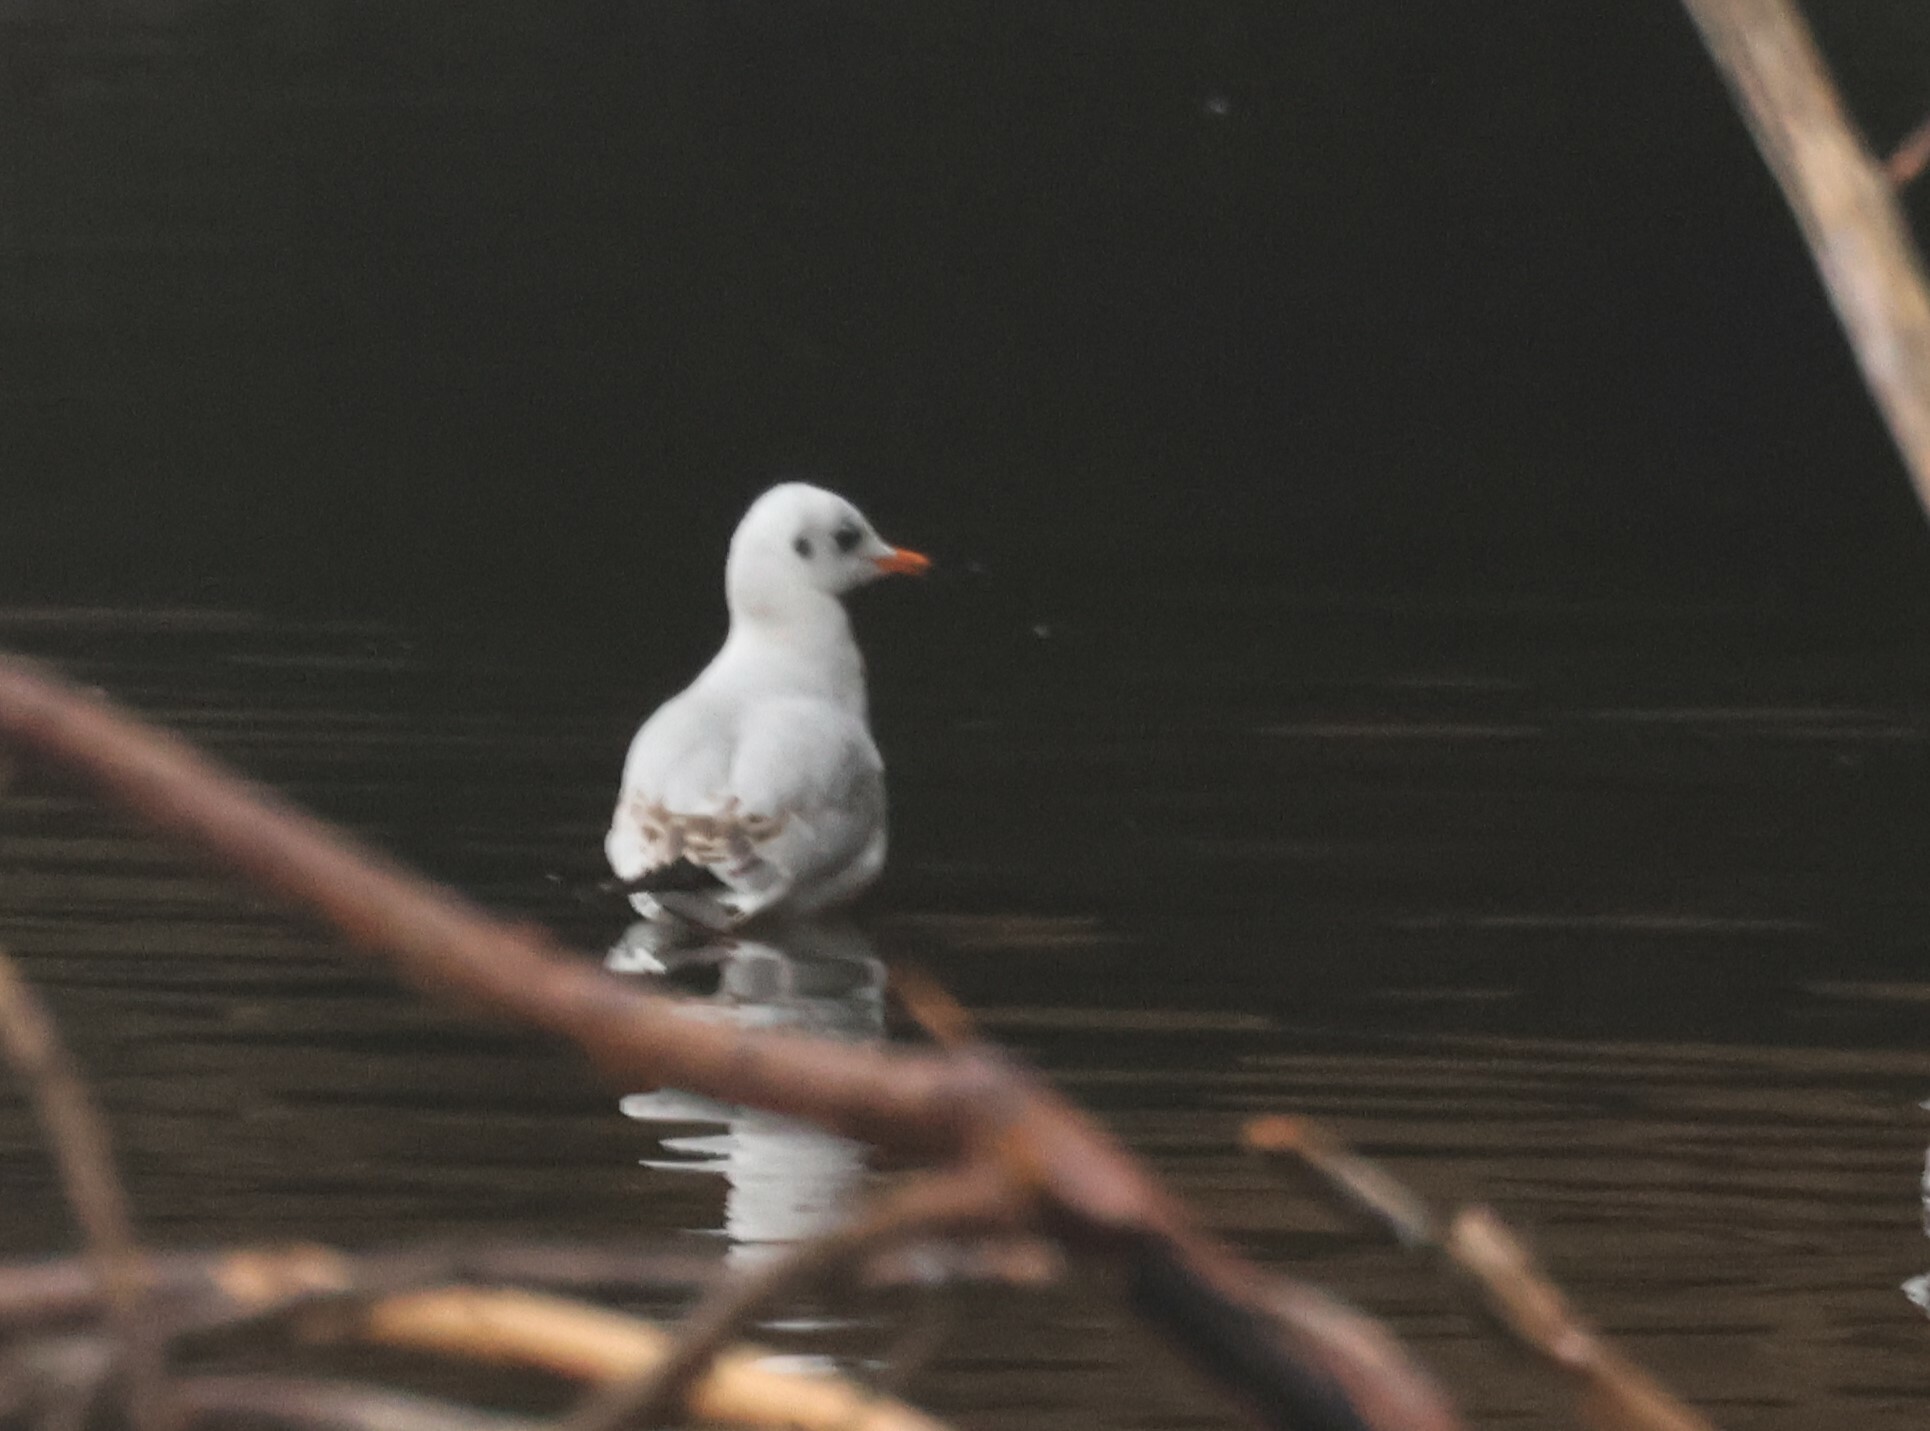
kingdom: Animalia
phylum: Chordata
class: Aves
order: Charadriiformes
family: Laridae
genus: Chroicocephalus
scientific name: Chroicocephalus ridibundus
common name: Black-headed gull
